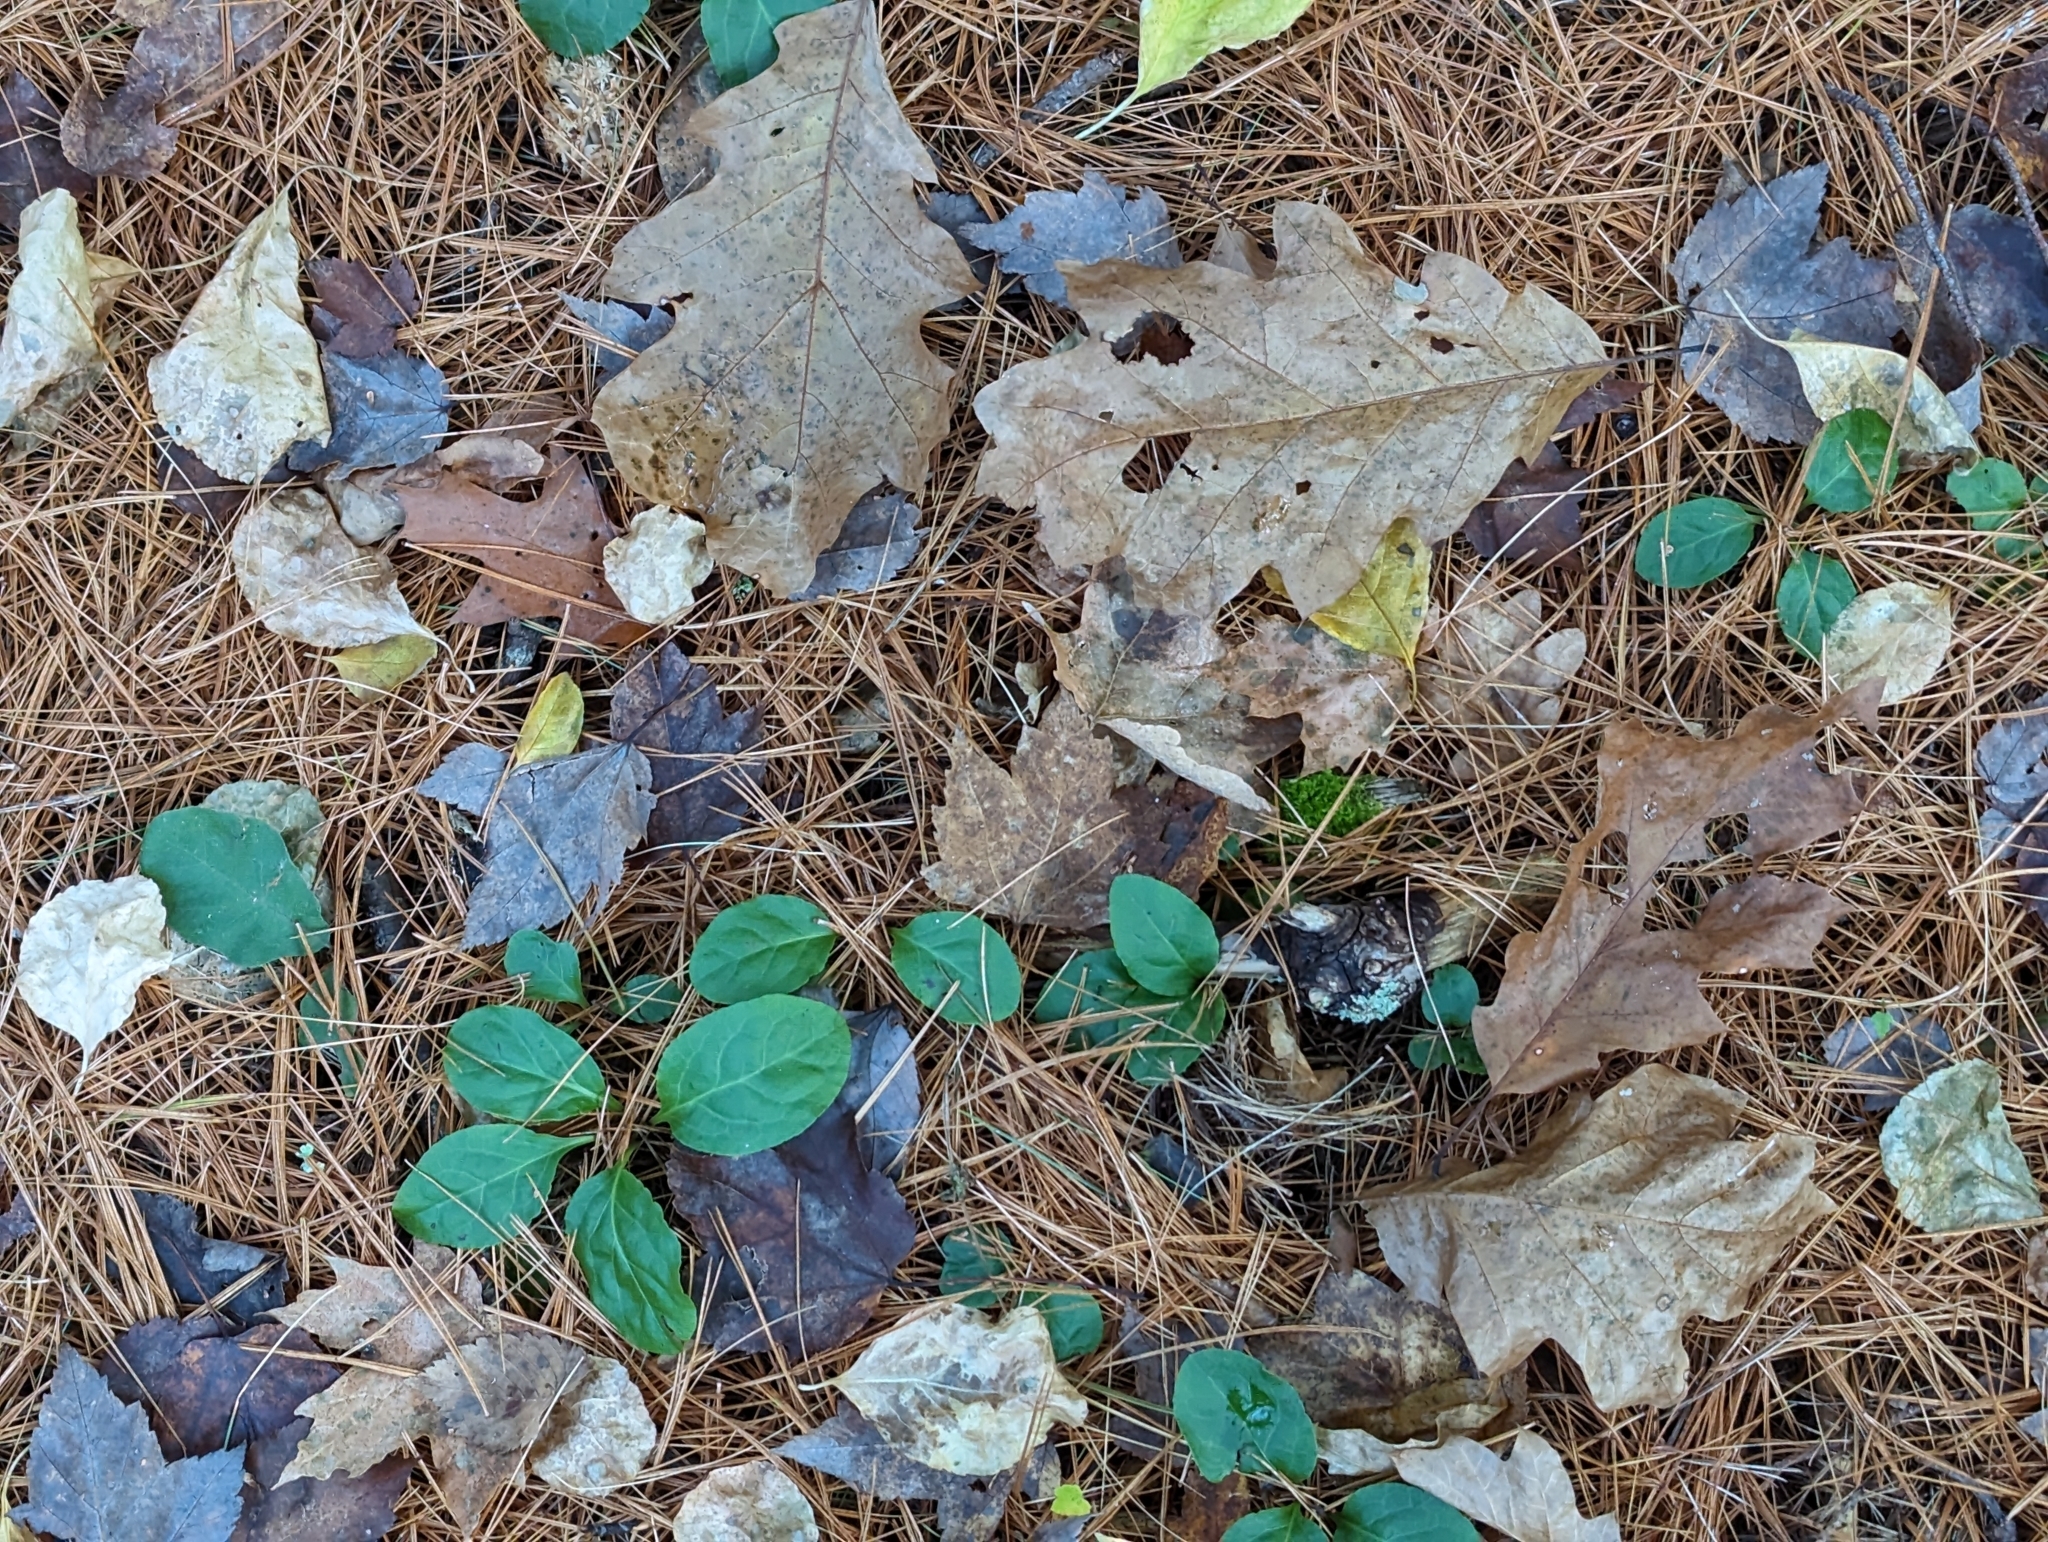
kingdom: Plantae
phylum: Tracheophyta
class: Magnoliopsida
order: Ericales
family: Ericaceae
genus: Pyrola
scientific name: Pyrola elliptica
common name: Shinleaf
